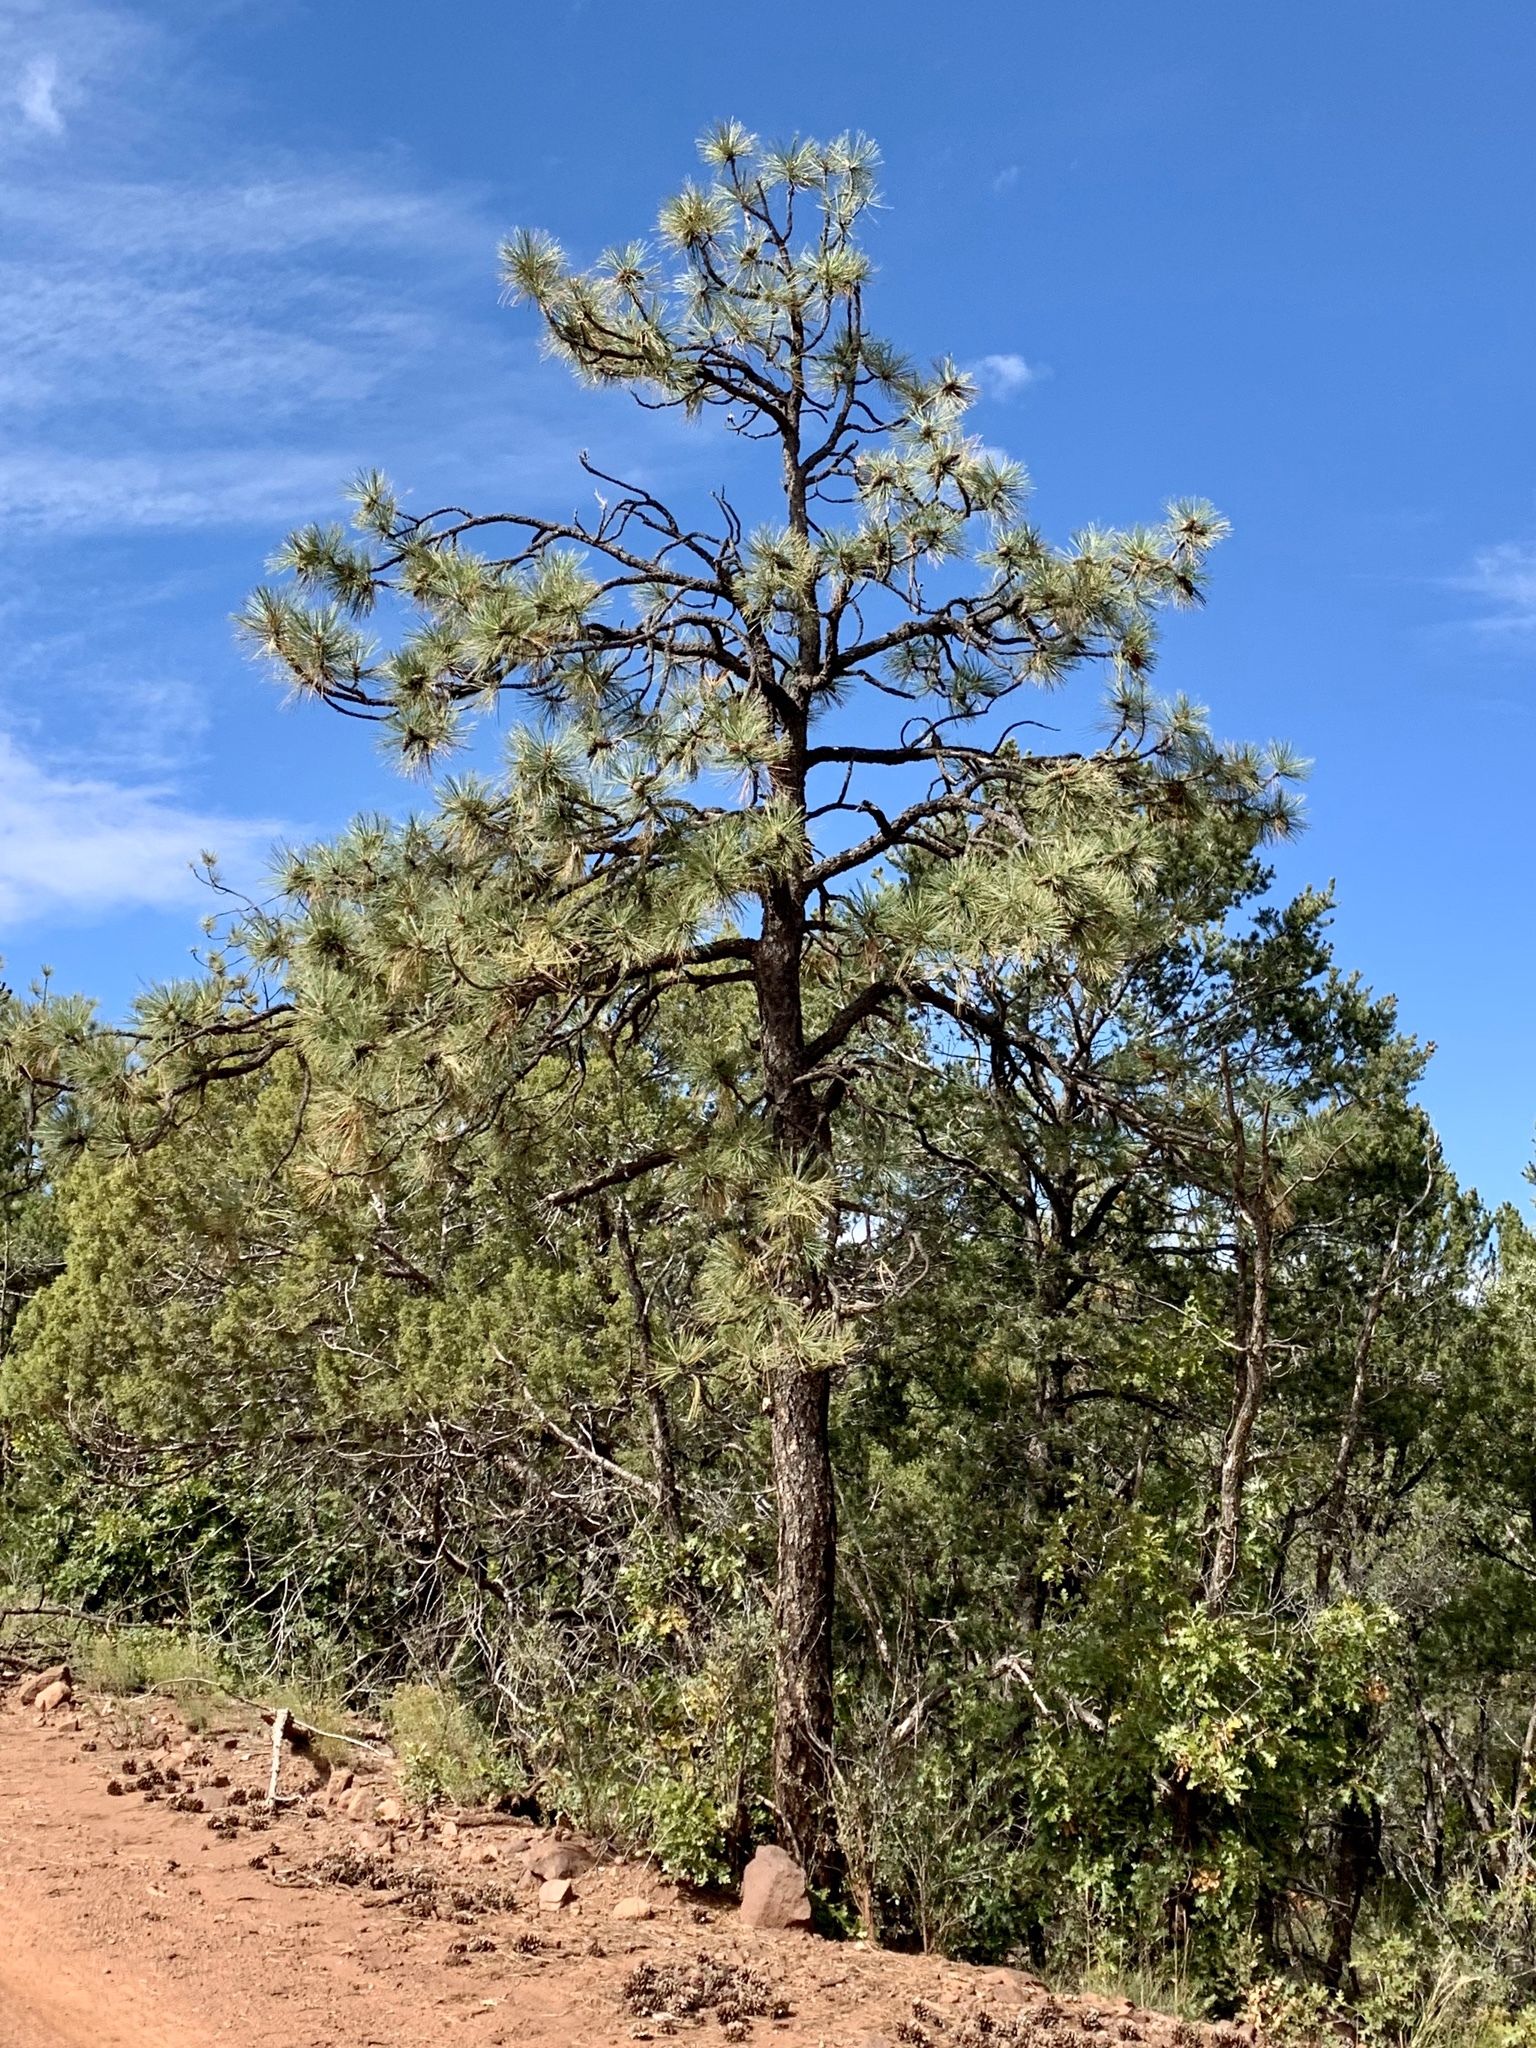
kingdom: Plantae
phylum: Tracheophyta
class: Pinopsida
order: Pinales
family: Pinaceae
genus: Pinus
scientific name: Pinus ponderosa
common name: Western yellow-pine
